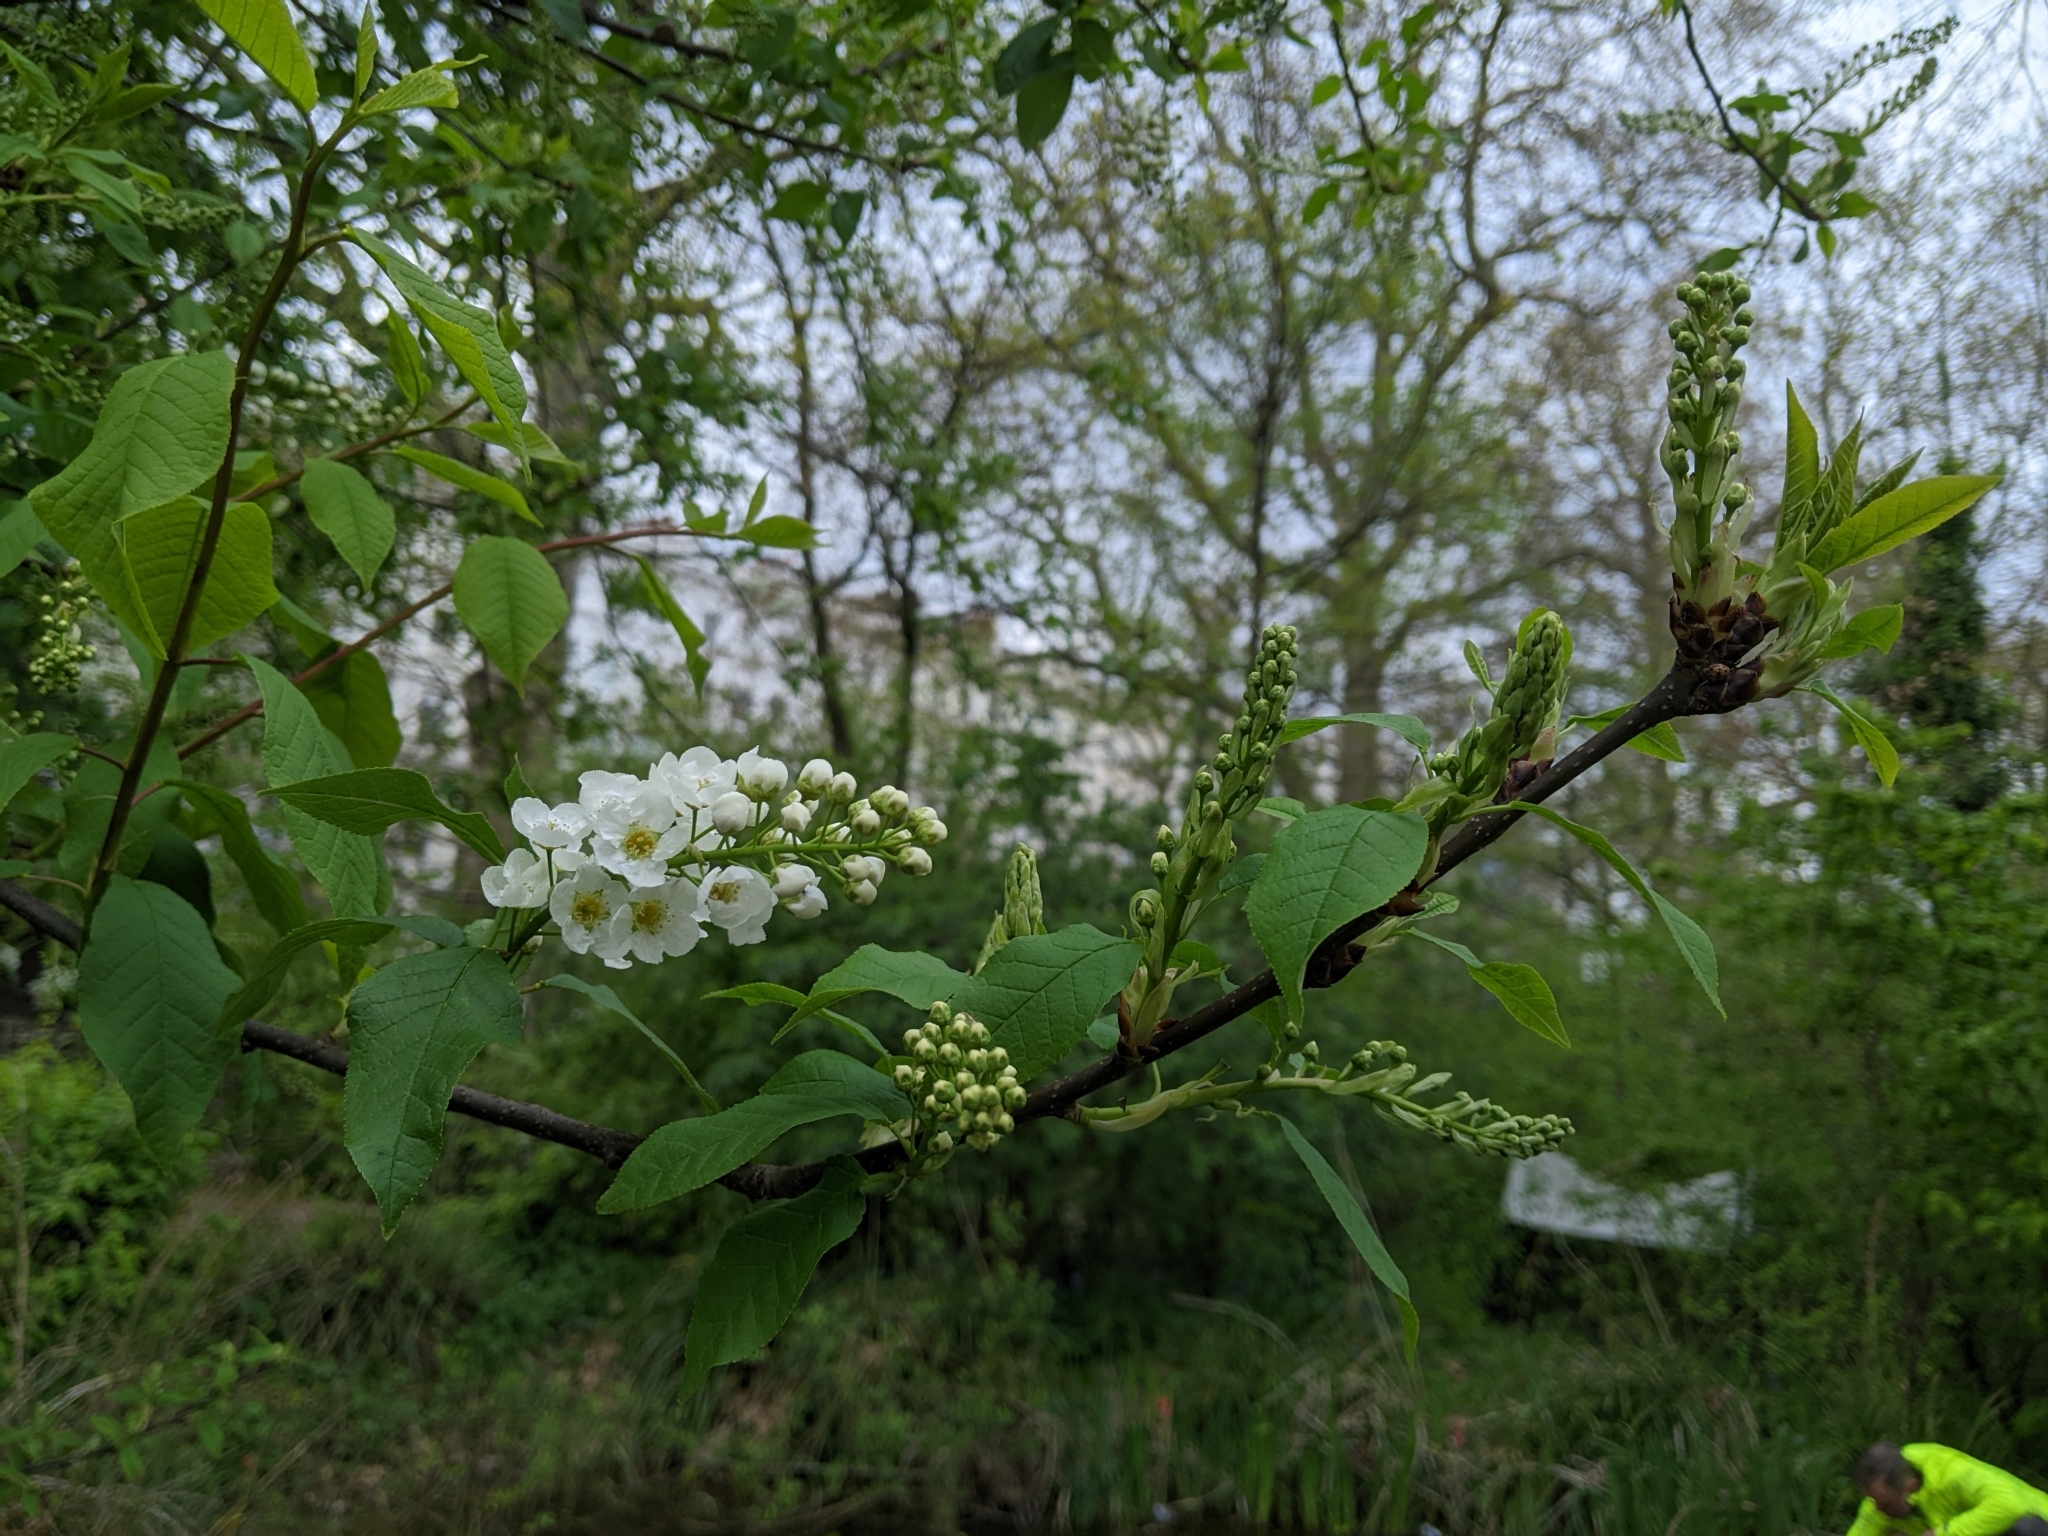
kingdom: Plantae
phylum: Tracheophyta
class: Magnoliopsida
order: Rosales
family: Rosaceae
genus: Prunus
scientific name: Prunus padus
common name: Bird cherry
